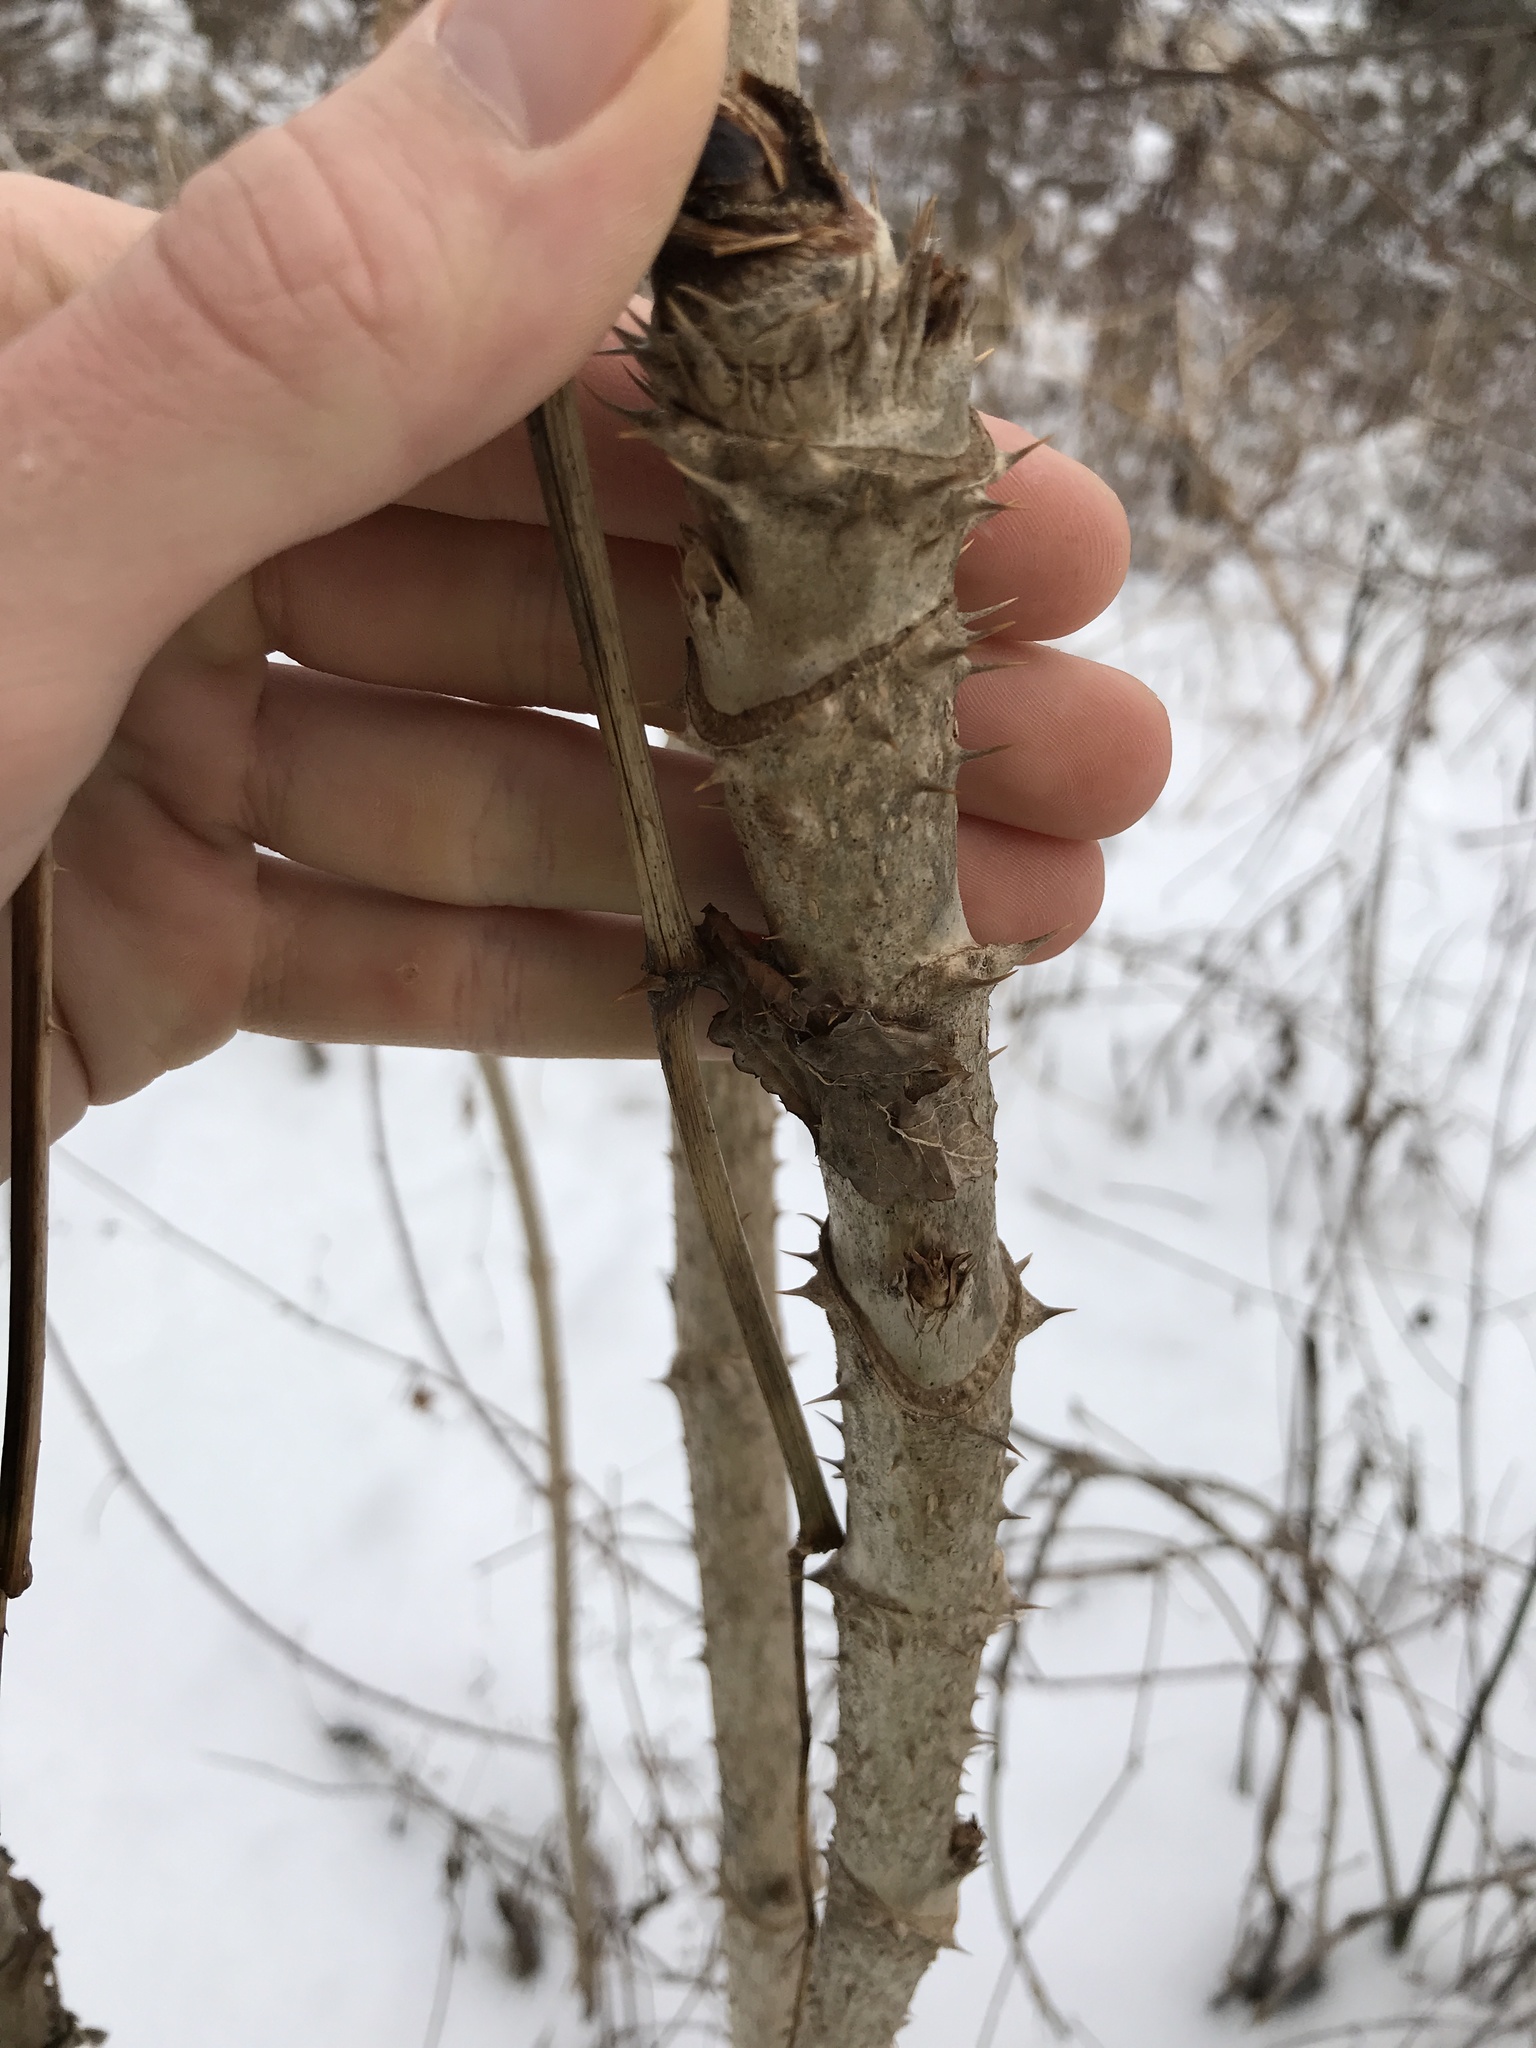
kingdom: Plantae
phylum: Tracheophyta
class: Magnoliopsida
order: Apiales
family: Araliaceae
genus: Aralia
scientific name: Aralia elata
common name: Japanese angelica-tree
